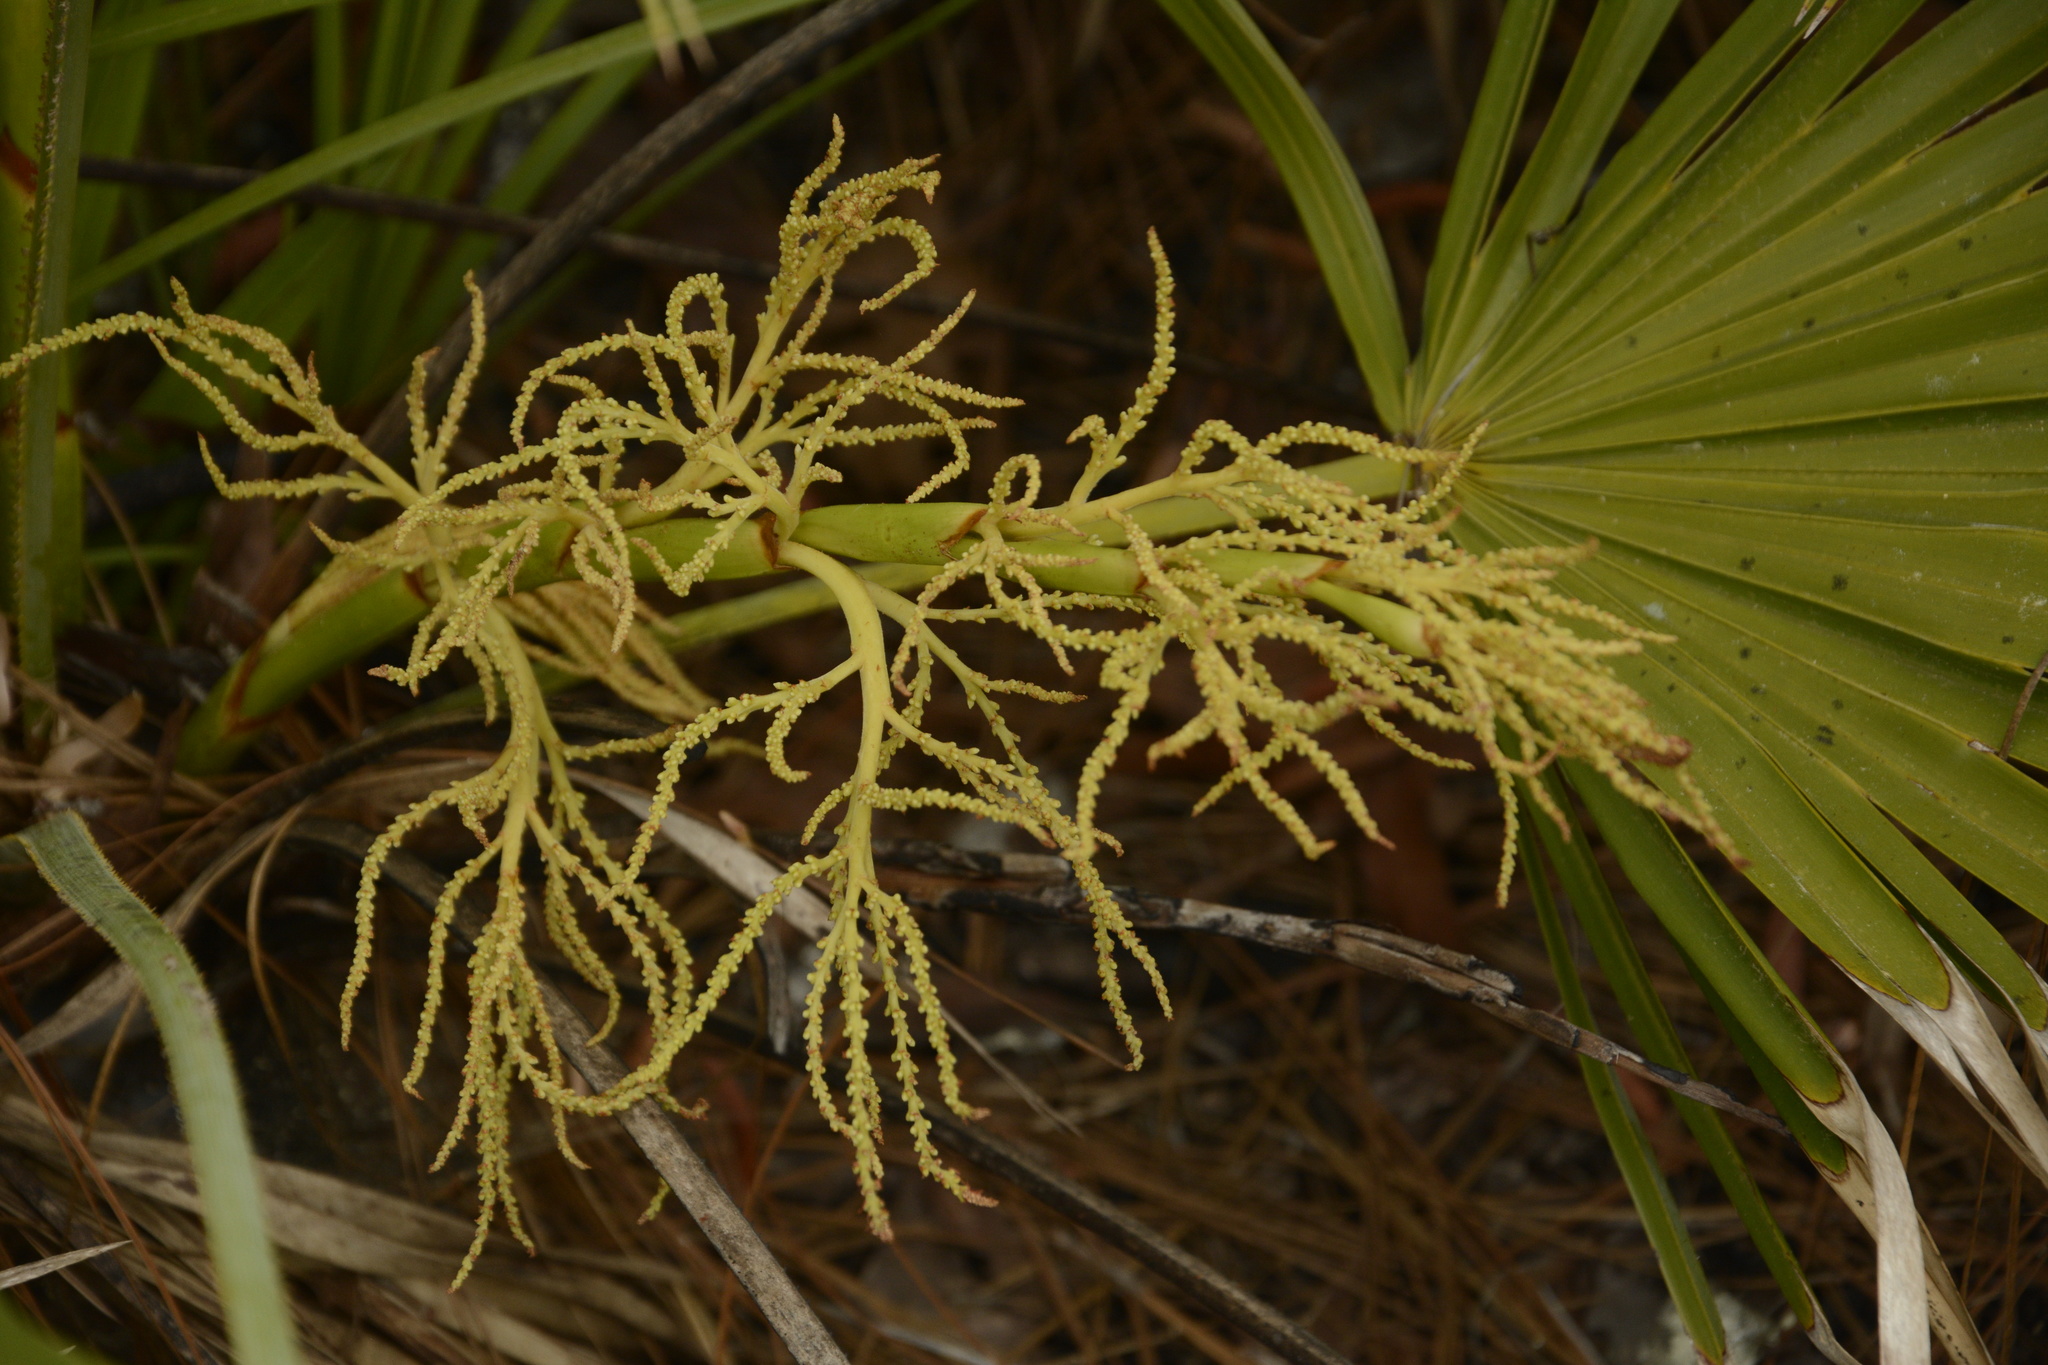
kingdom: Plantae
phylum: Tracheophyta
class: Liliopsida
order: Arecales
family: Arecaceae
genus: Serenoa
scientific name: Serenoa repens
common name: Saw-palmetto
